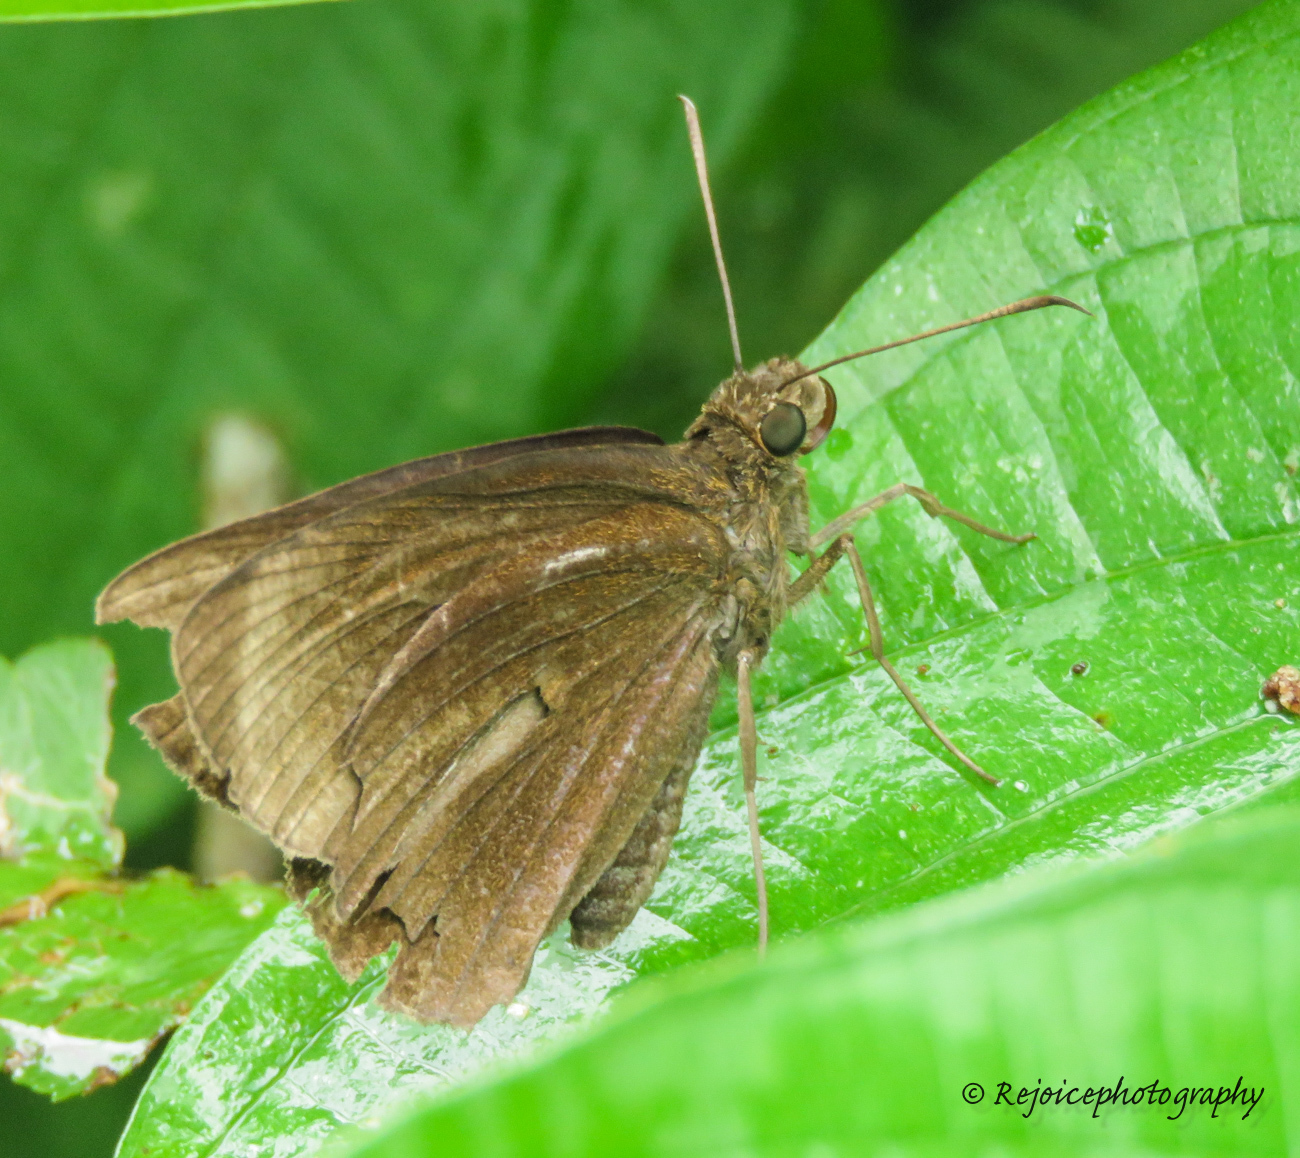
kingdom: Animalia
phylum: Arthropoda
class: Insecta
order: Lepidoptera
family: Hesperiidae
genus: Ancistroides
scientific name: Ancistroides nigrita
